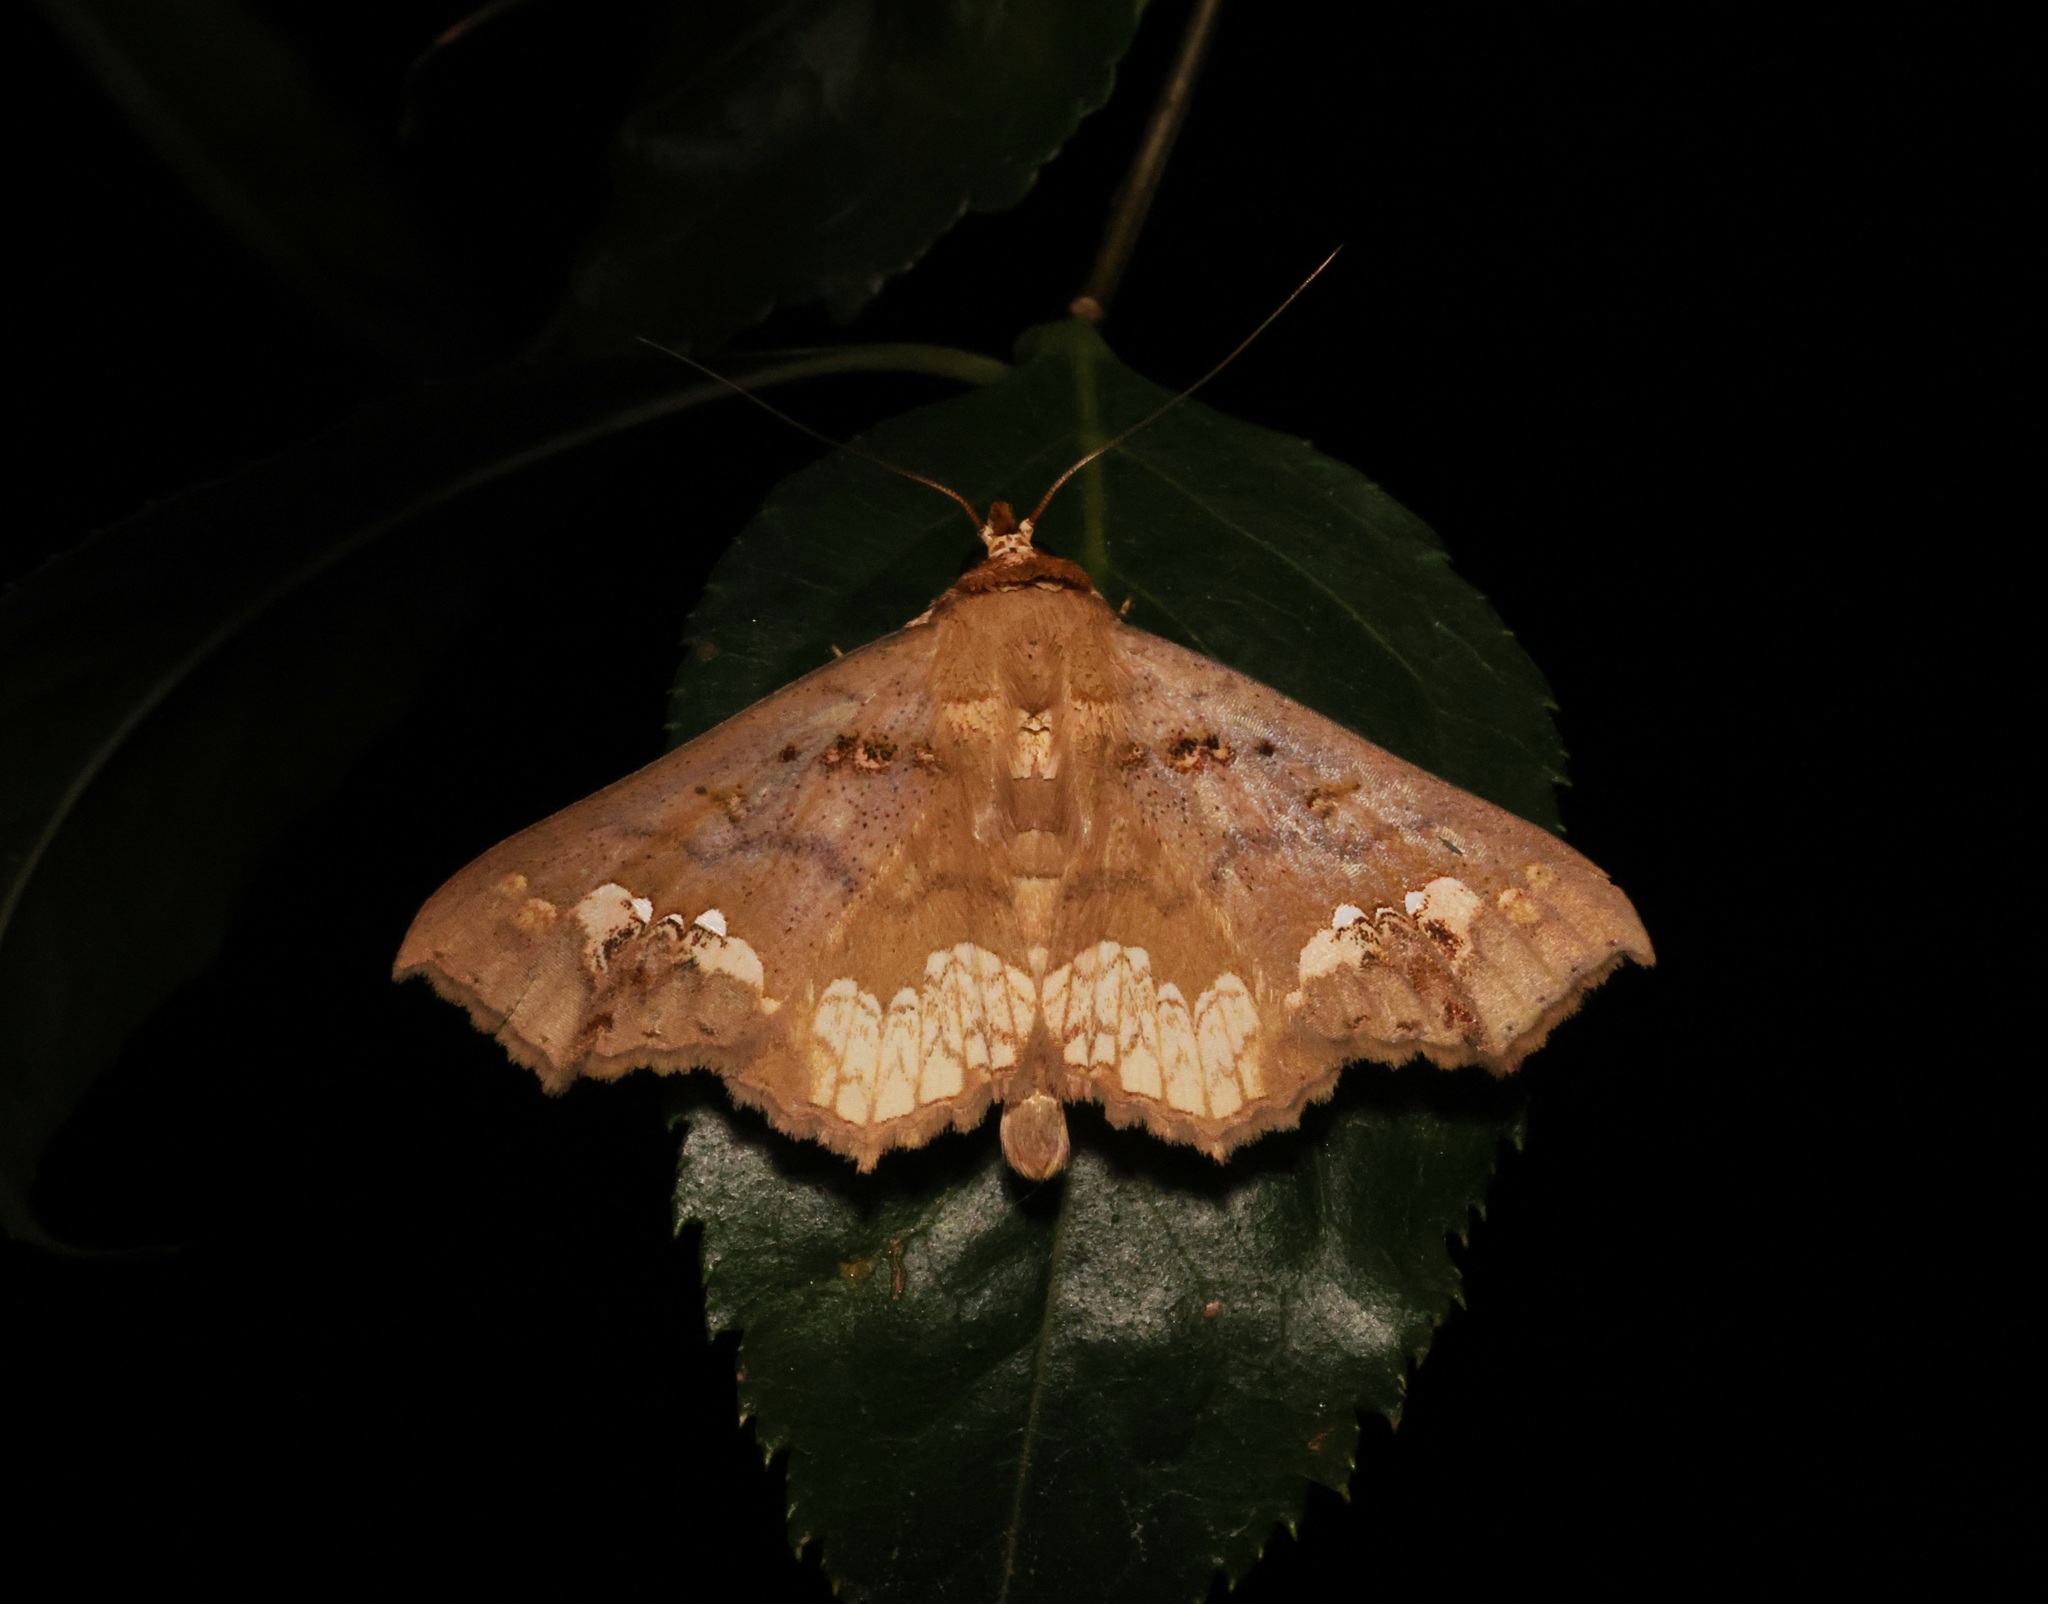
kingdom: Animalia
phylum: Arthropoda
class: Insecta
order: Lepidoptera
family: Erebidae
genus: Lopharthrum
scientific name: Lopharthrum comprimens
